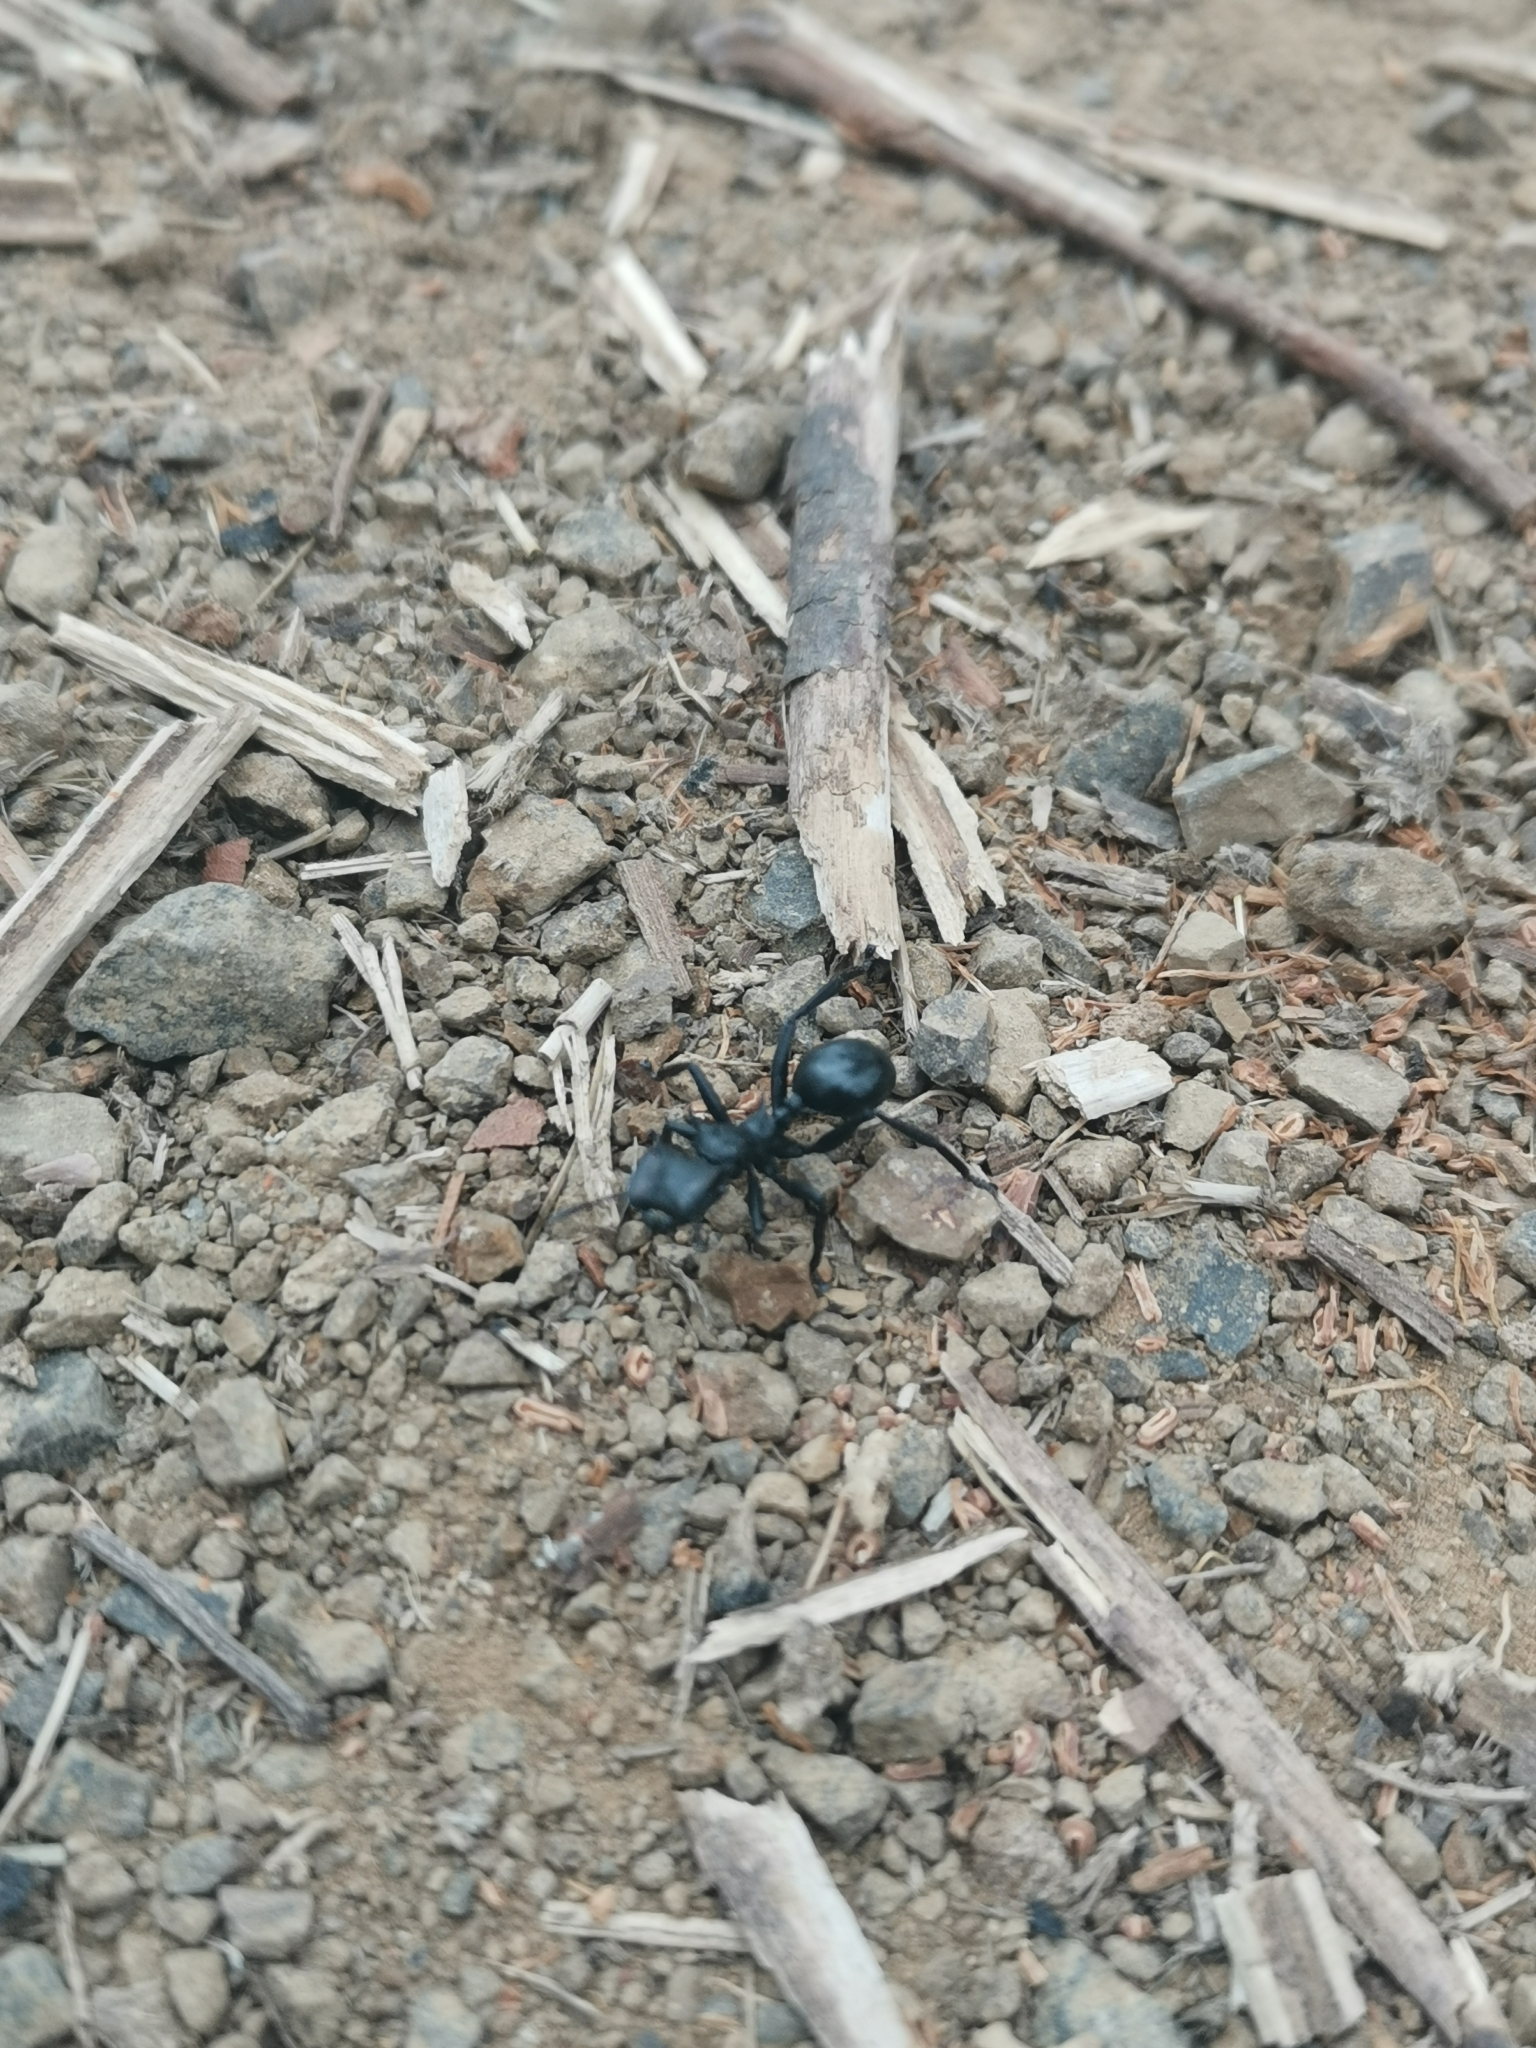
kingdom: Animalia
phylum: Arthropoda
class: Insecta
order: Hymenoptera
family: Formicidae
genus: Cephalotes
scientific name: Cephalotes atratus
